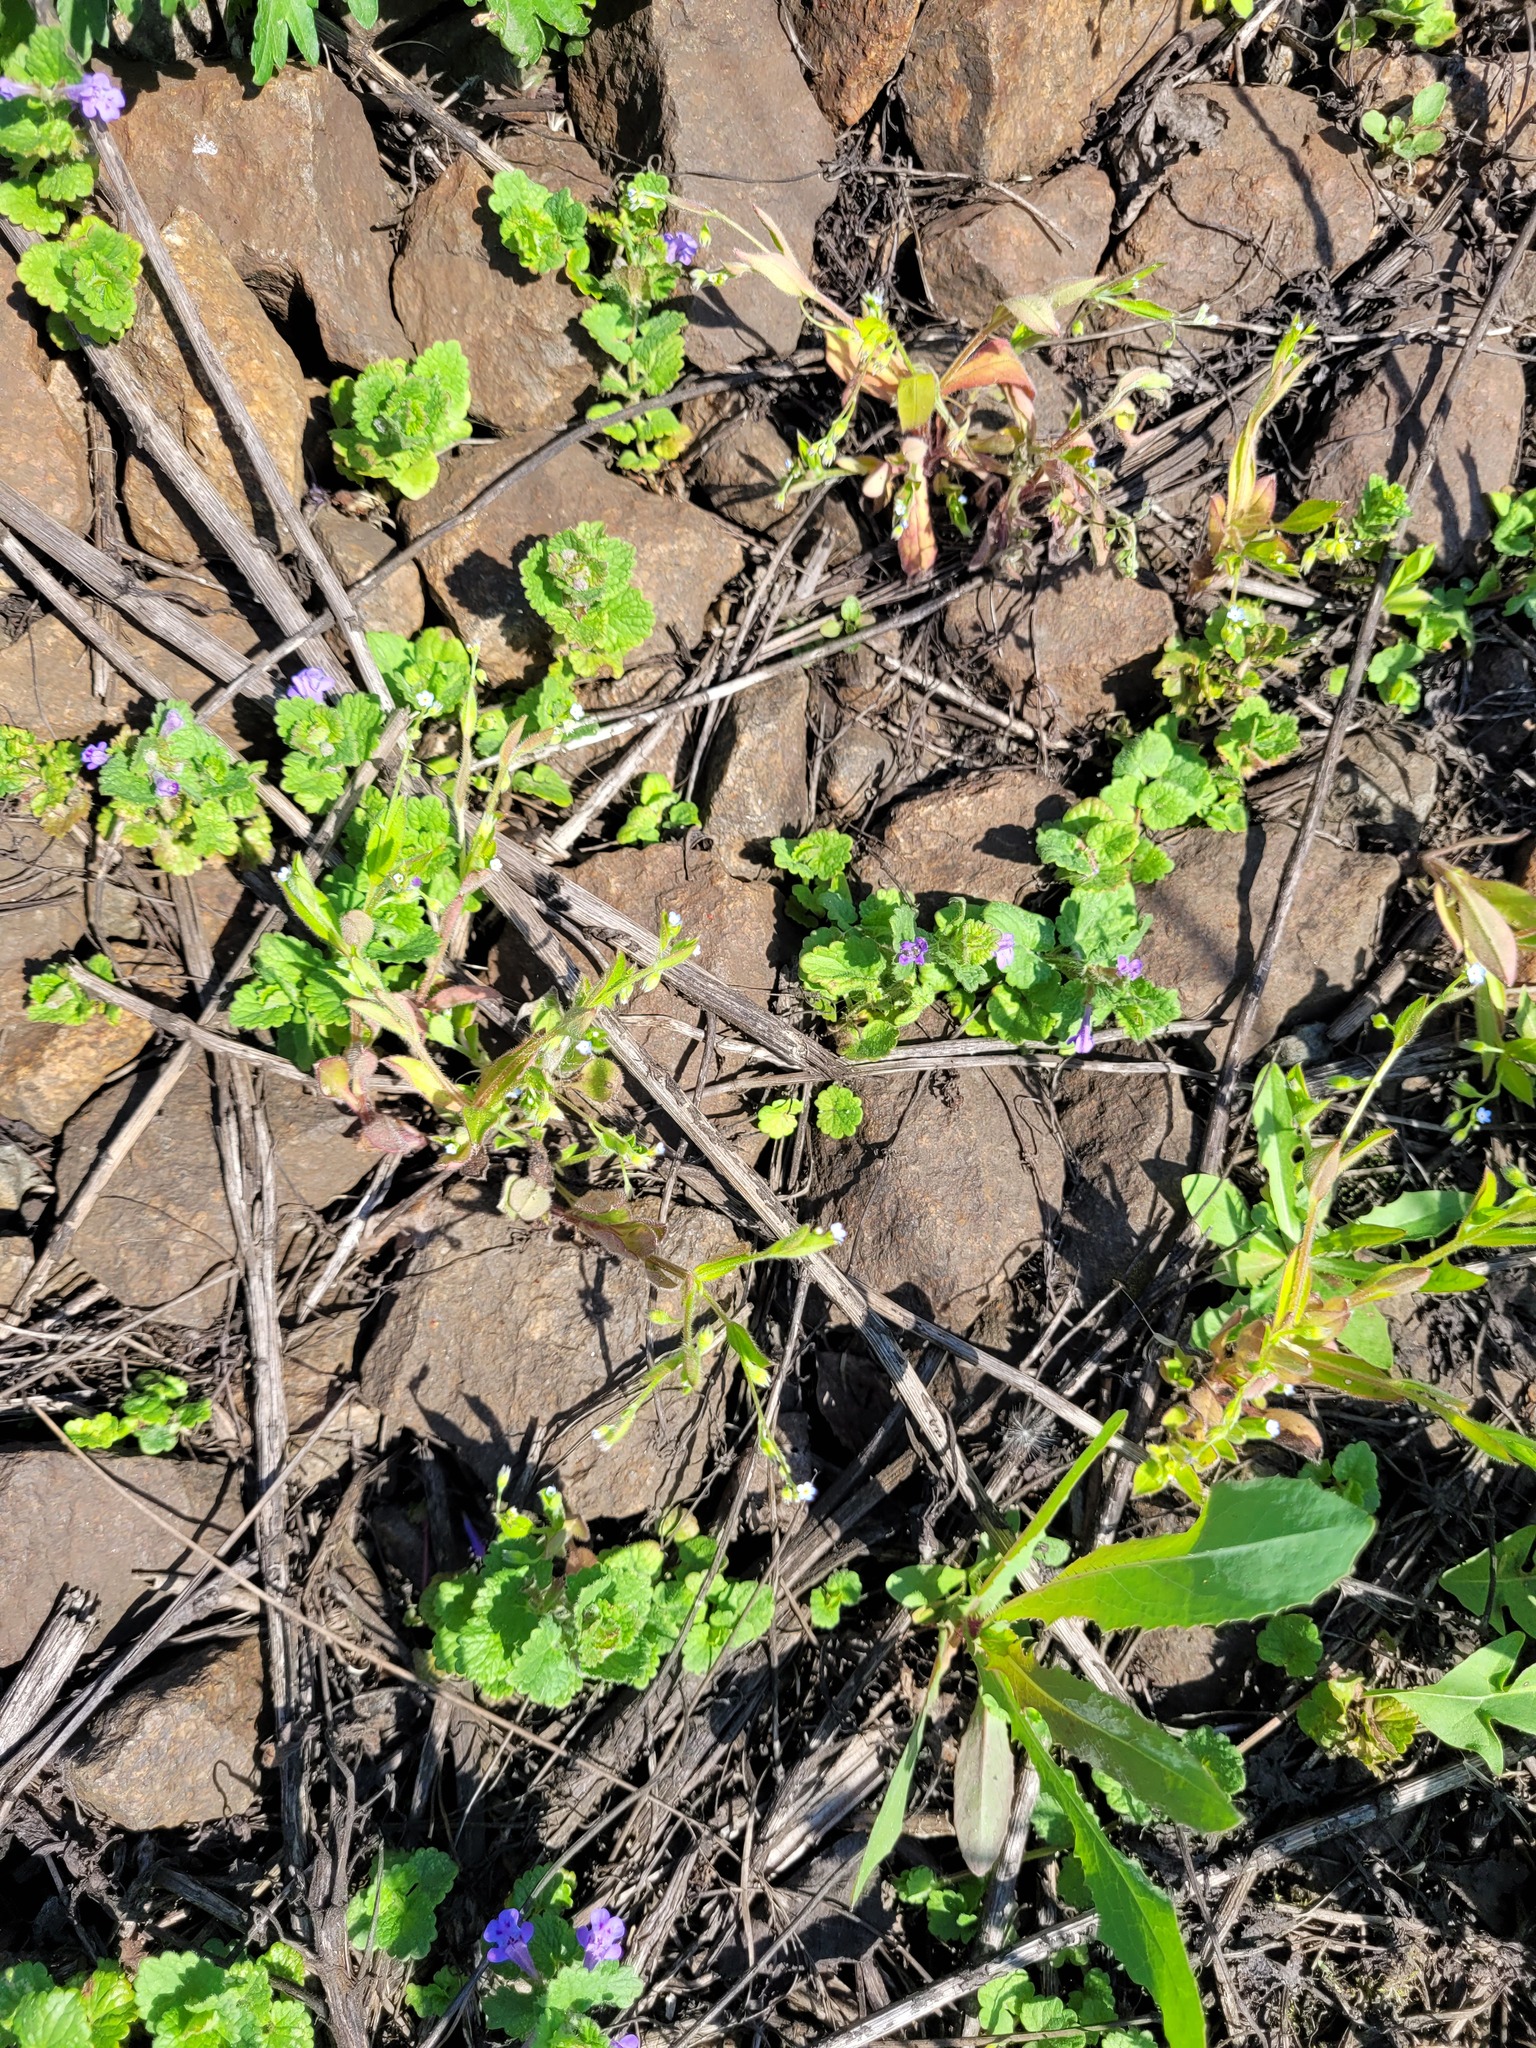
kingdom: Plantae
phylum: Tracheophyta
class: Magnoliopsida
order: Boraginales
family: Boraginaceae
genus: Myosotis
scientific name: Myosotis sparsiflora
